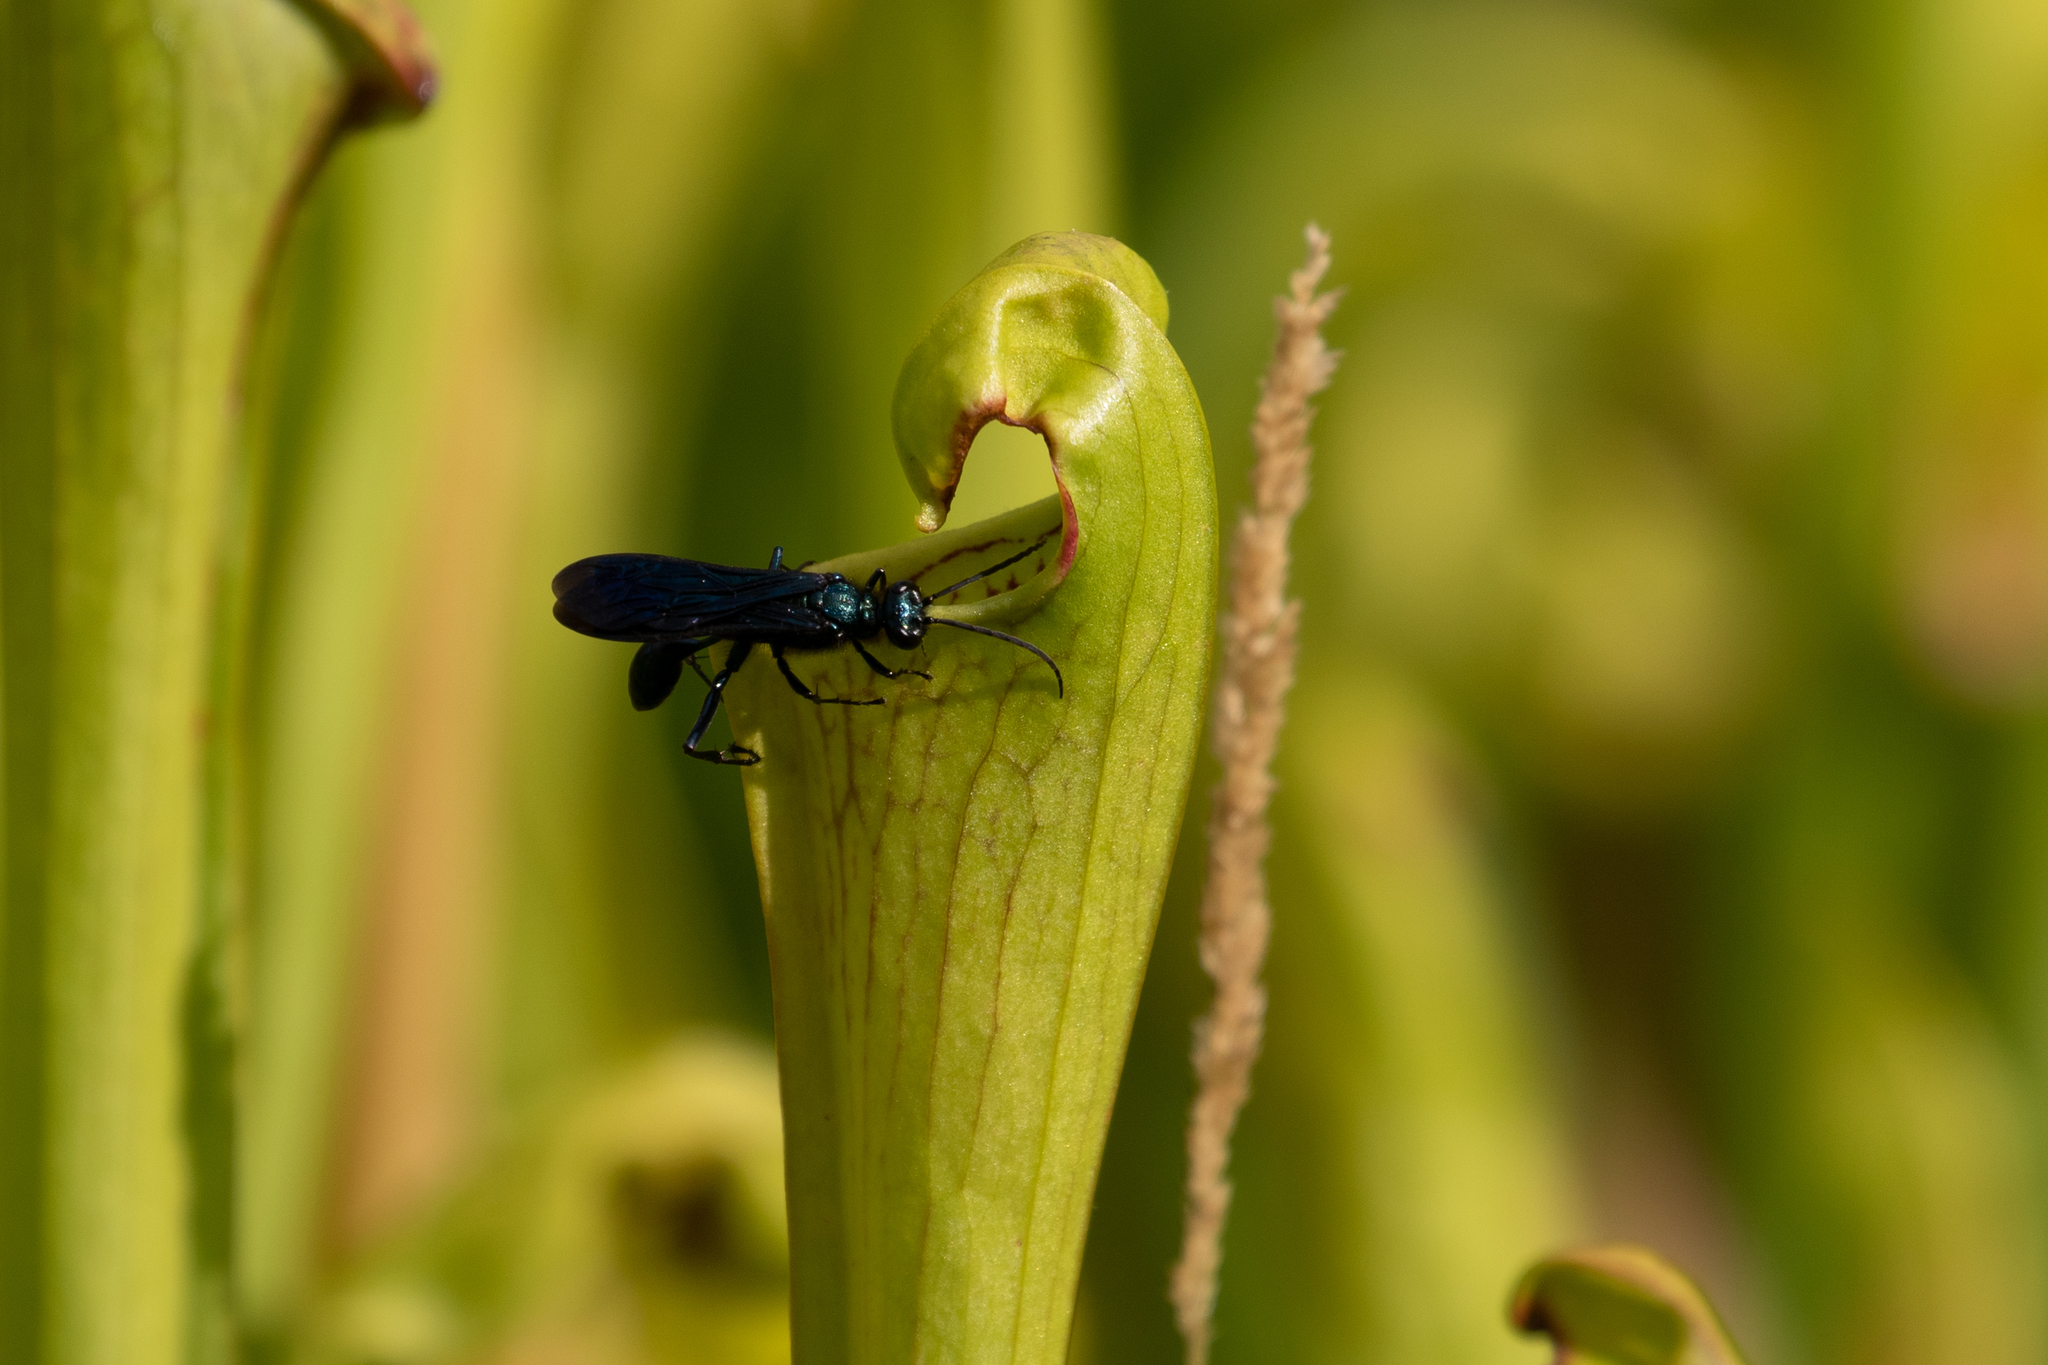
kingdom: Animalia
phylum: Arthropoda
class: Insecta
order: Hymenoptera
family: Sphecidae
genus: Chalybion
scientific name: Chalybion californicum
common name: Mud dauber
